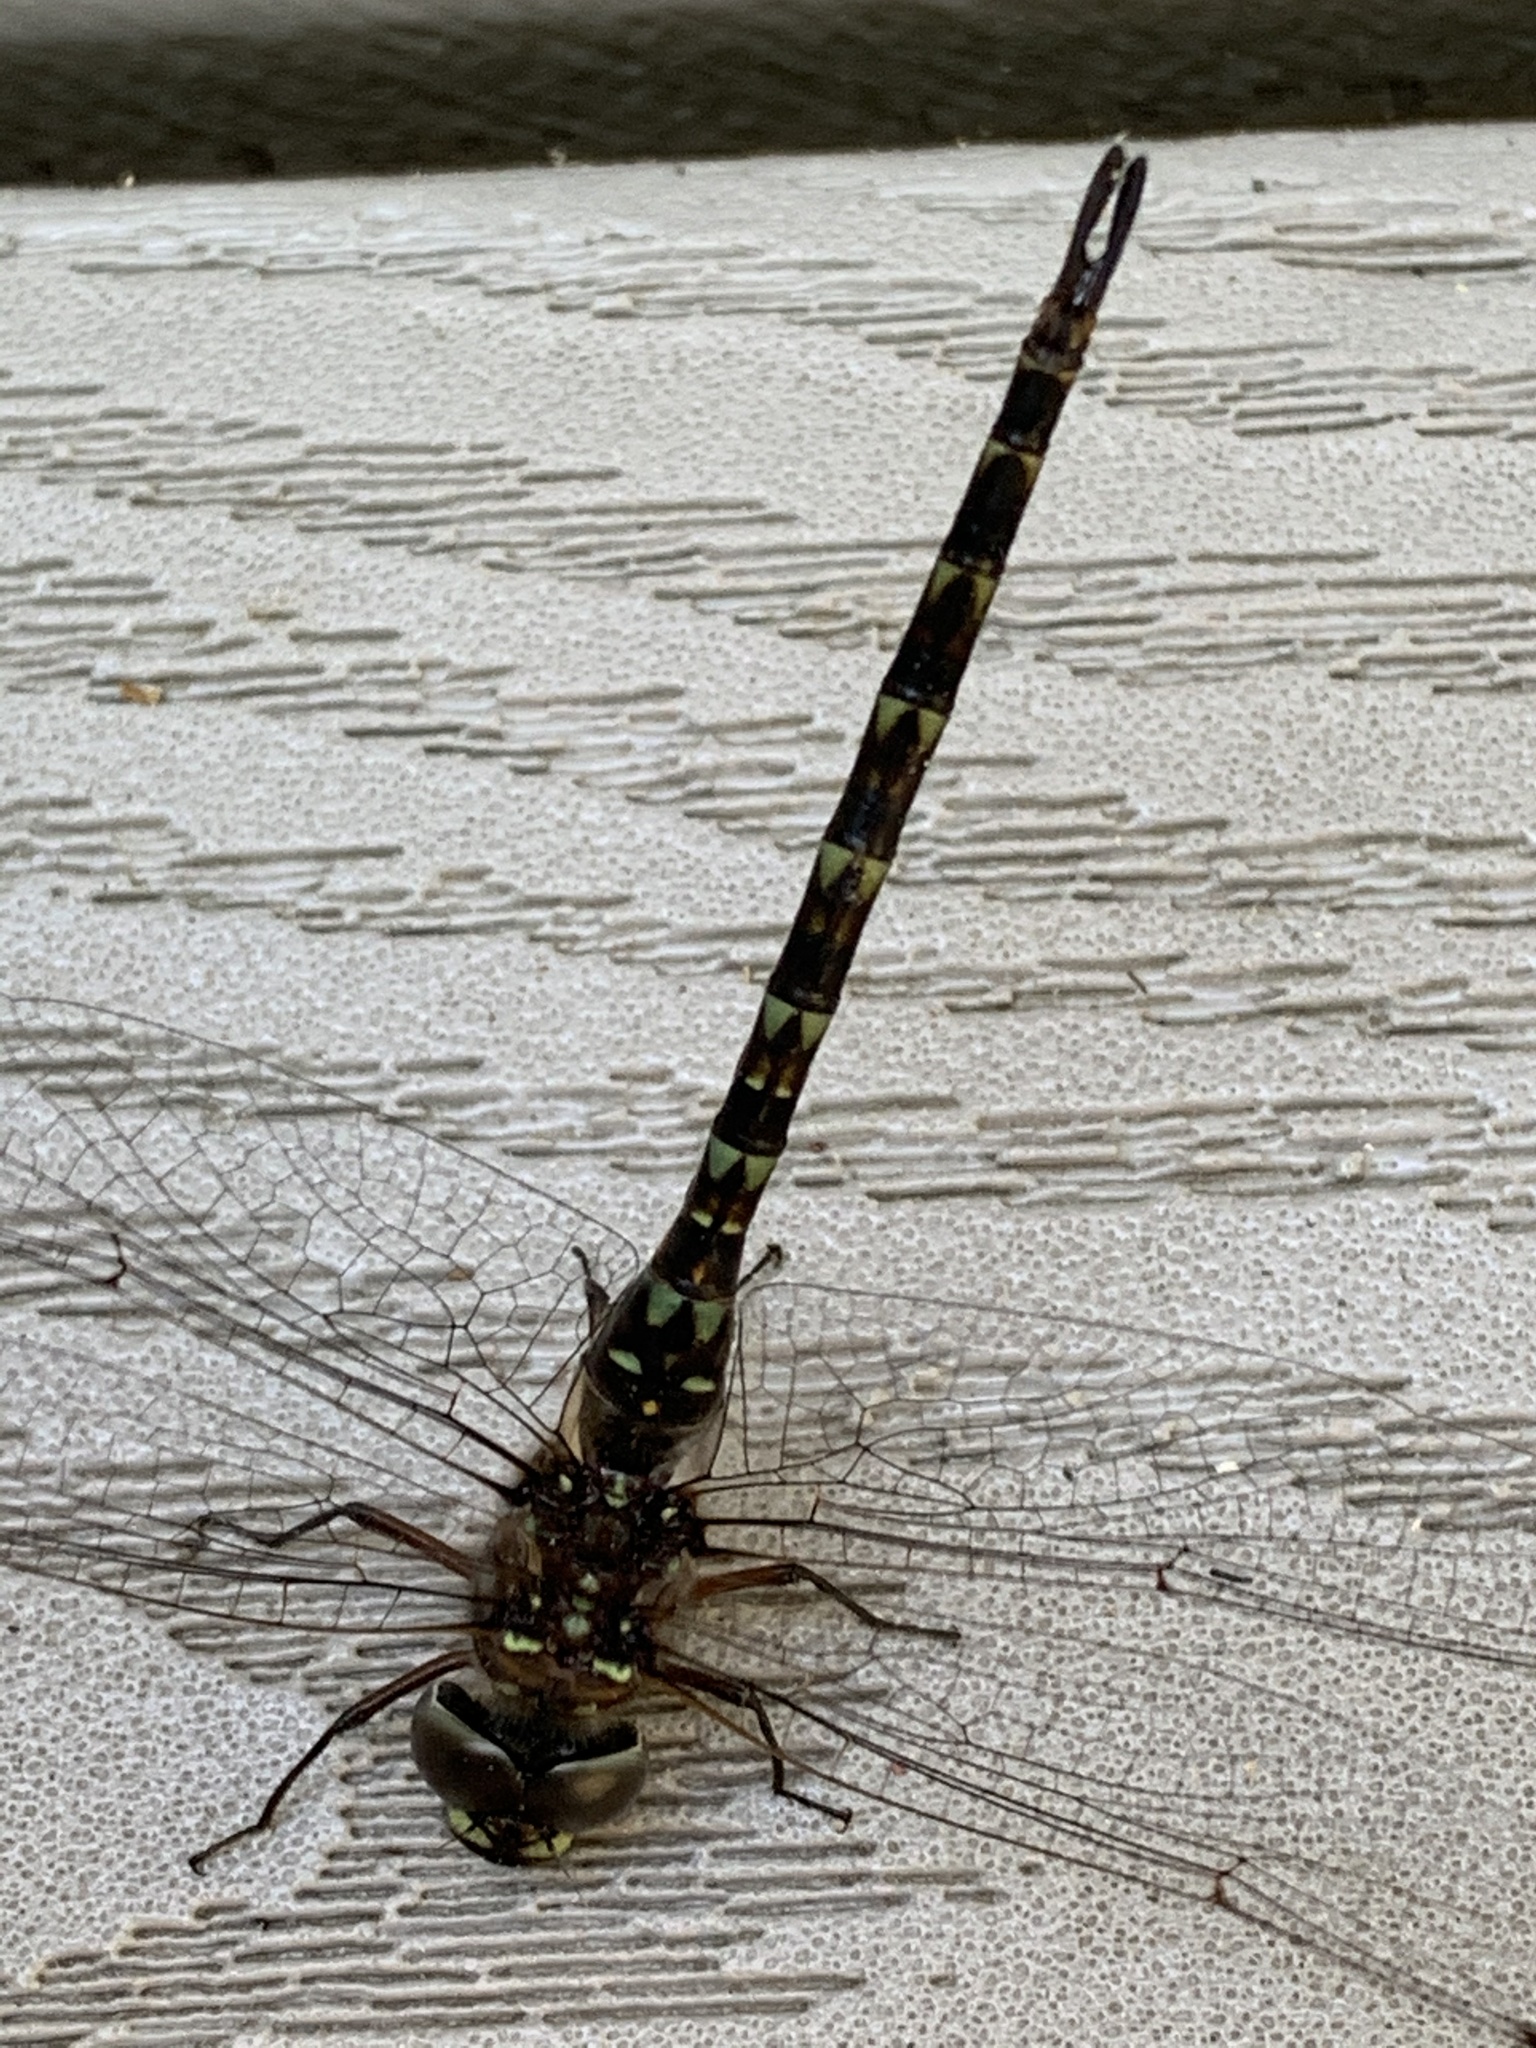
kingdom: Animalia
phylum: Arthropoda
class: Insecta
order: Odonata
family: Aeshnidae
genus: Gomphaeschna
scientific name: Gomphaeschna antilope
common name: Taper-tailed darner
